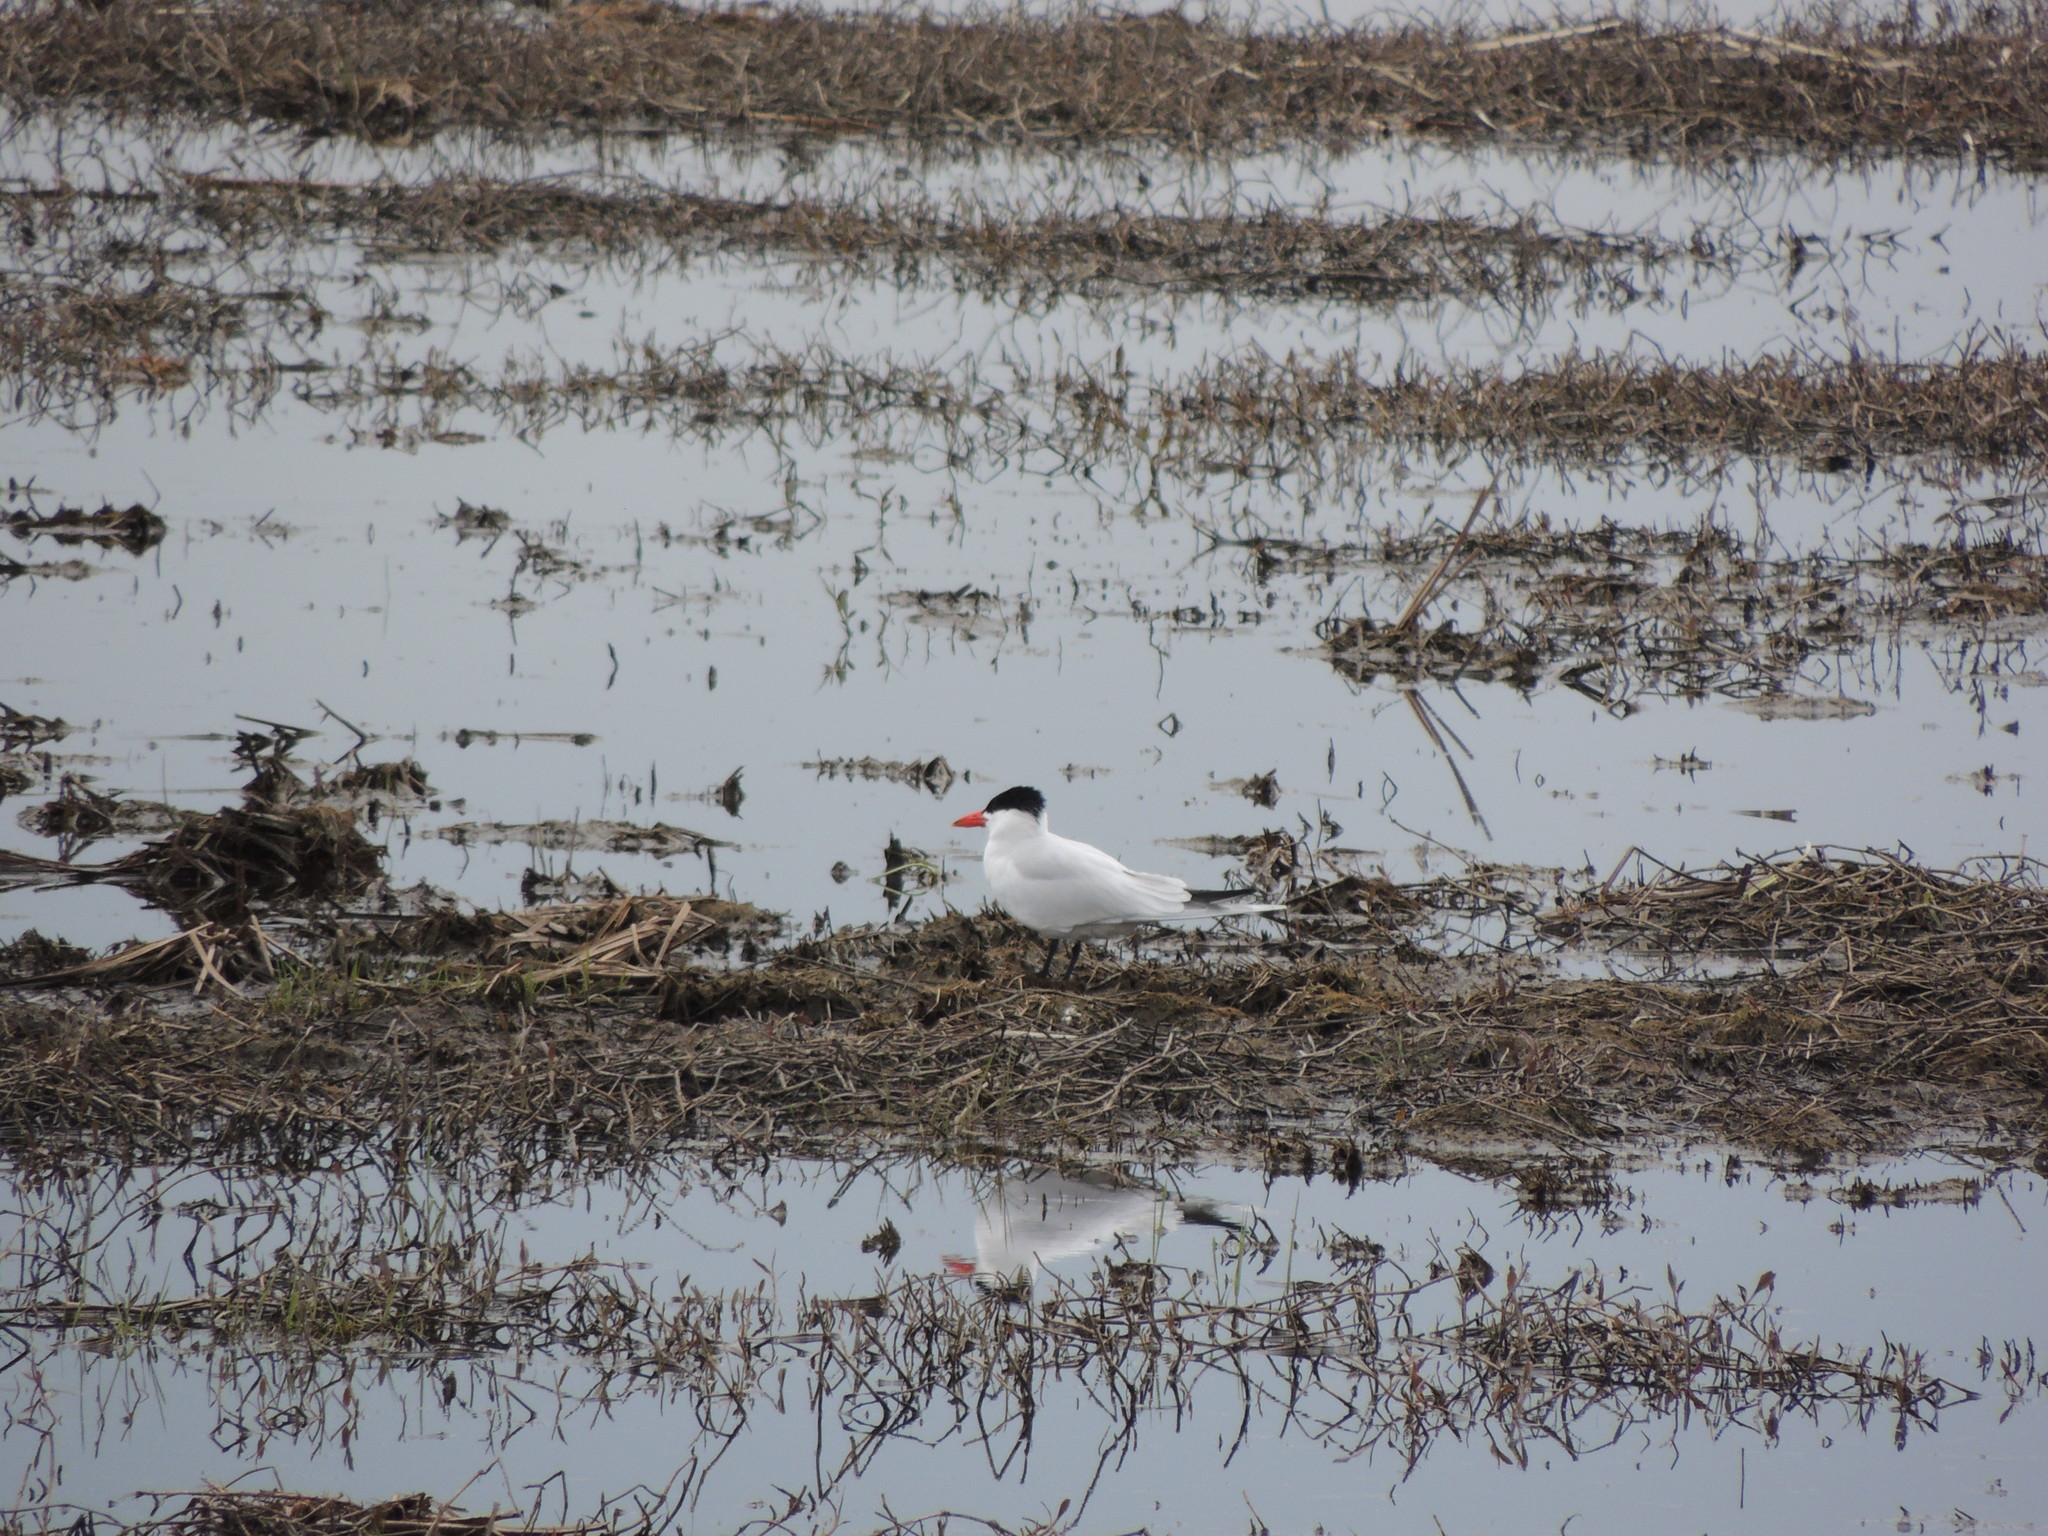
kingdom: Animalia
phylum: Chordata
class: Aves
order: Charadriiformes
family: Laridae
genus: Hydroprogne
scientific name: Hydroprogne caspia
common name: Caspian tern
